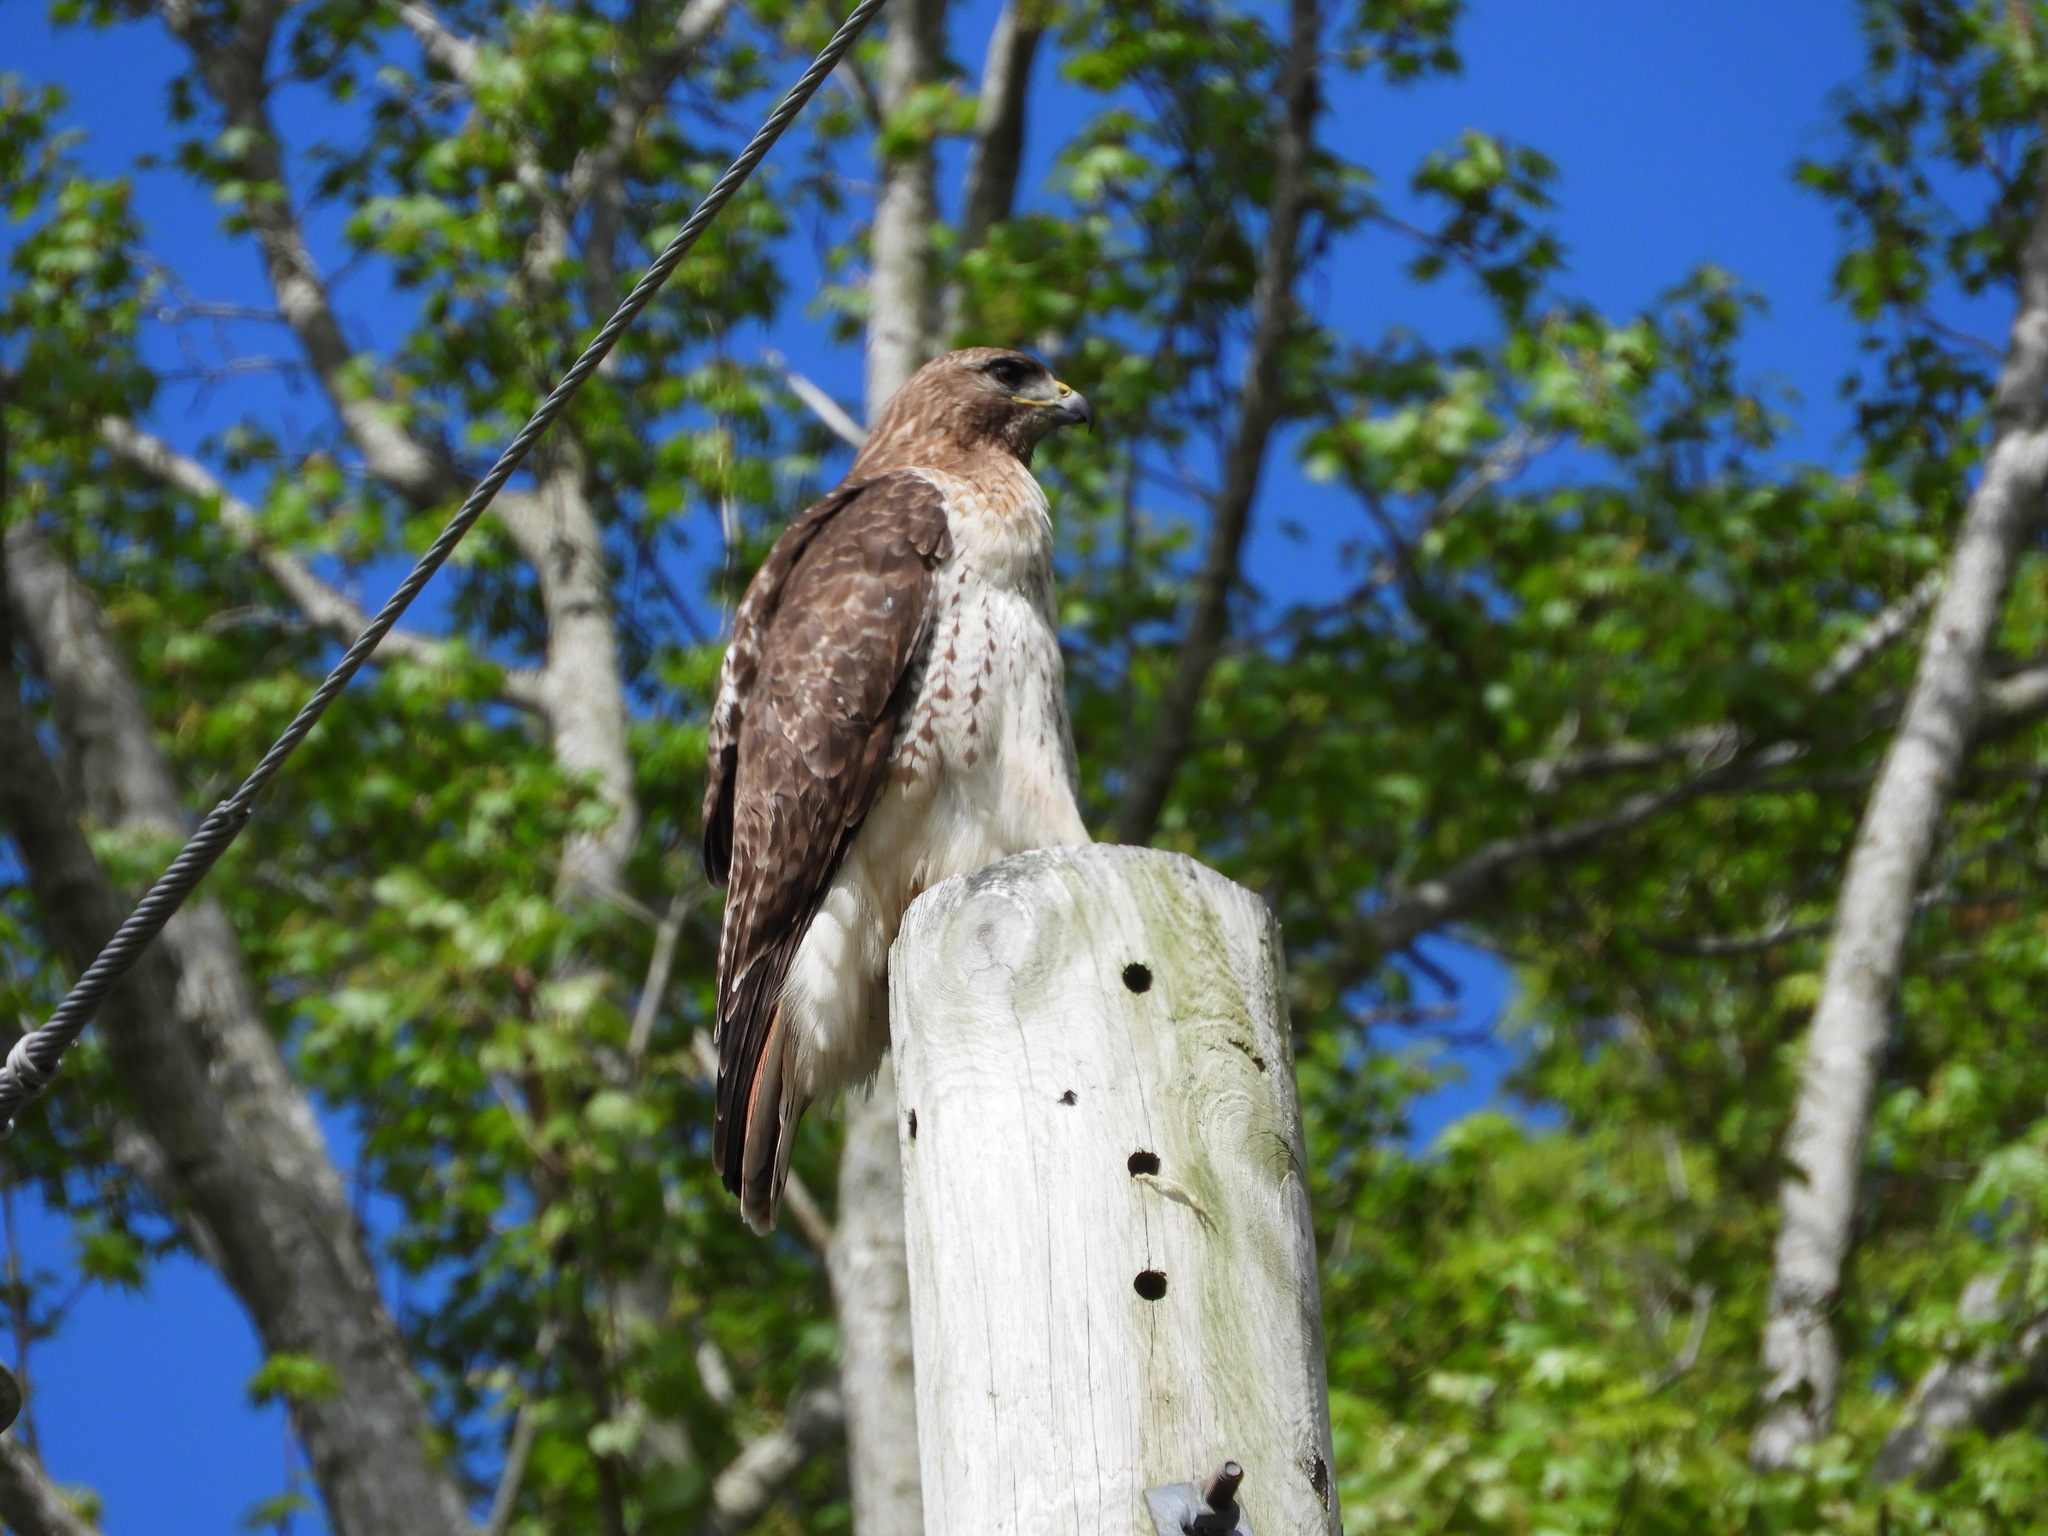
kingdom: Animalia
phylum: Chordata
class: Aves
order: Accipitriformes
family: Accipitridae
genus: Buteo
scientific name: Buteo jamaicensis
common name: Red-tailed hawk
